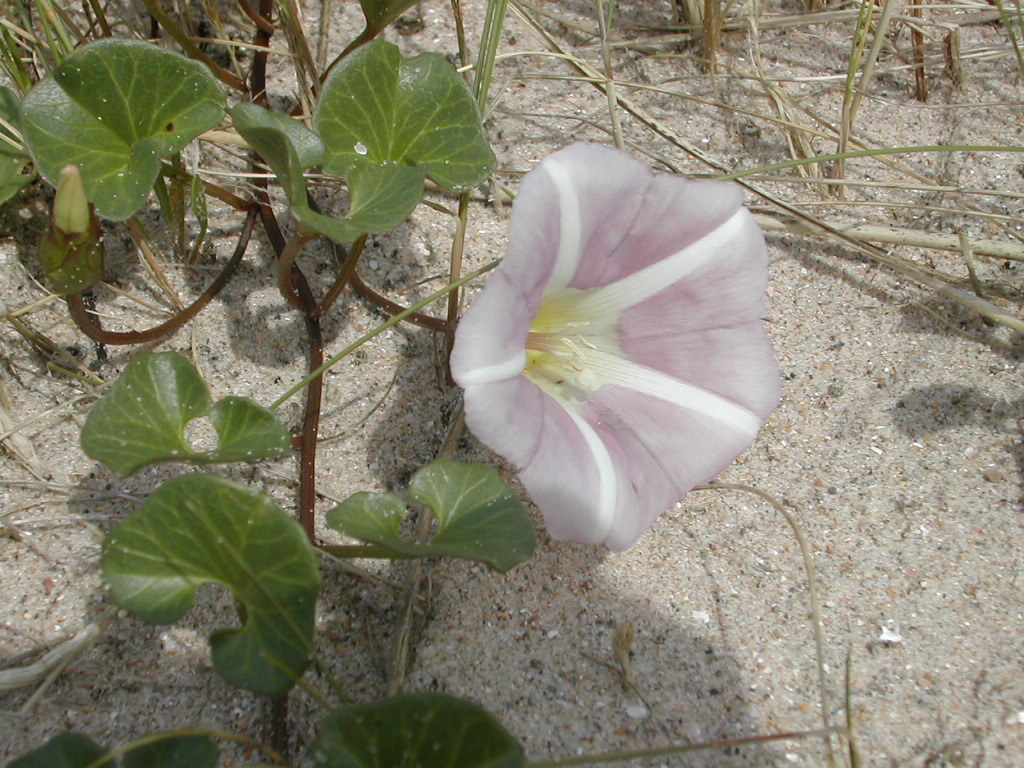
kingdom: Plantae
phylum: Tracheophyta
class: Magnoliopsida
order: Solanales
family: Convolvulaceae
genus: Calystegia
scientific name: Calystegia soldanella
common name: Sea bindweed
